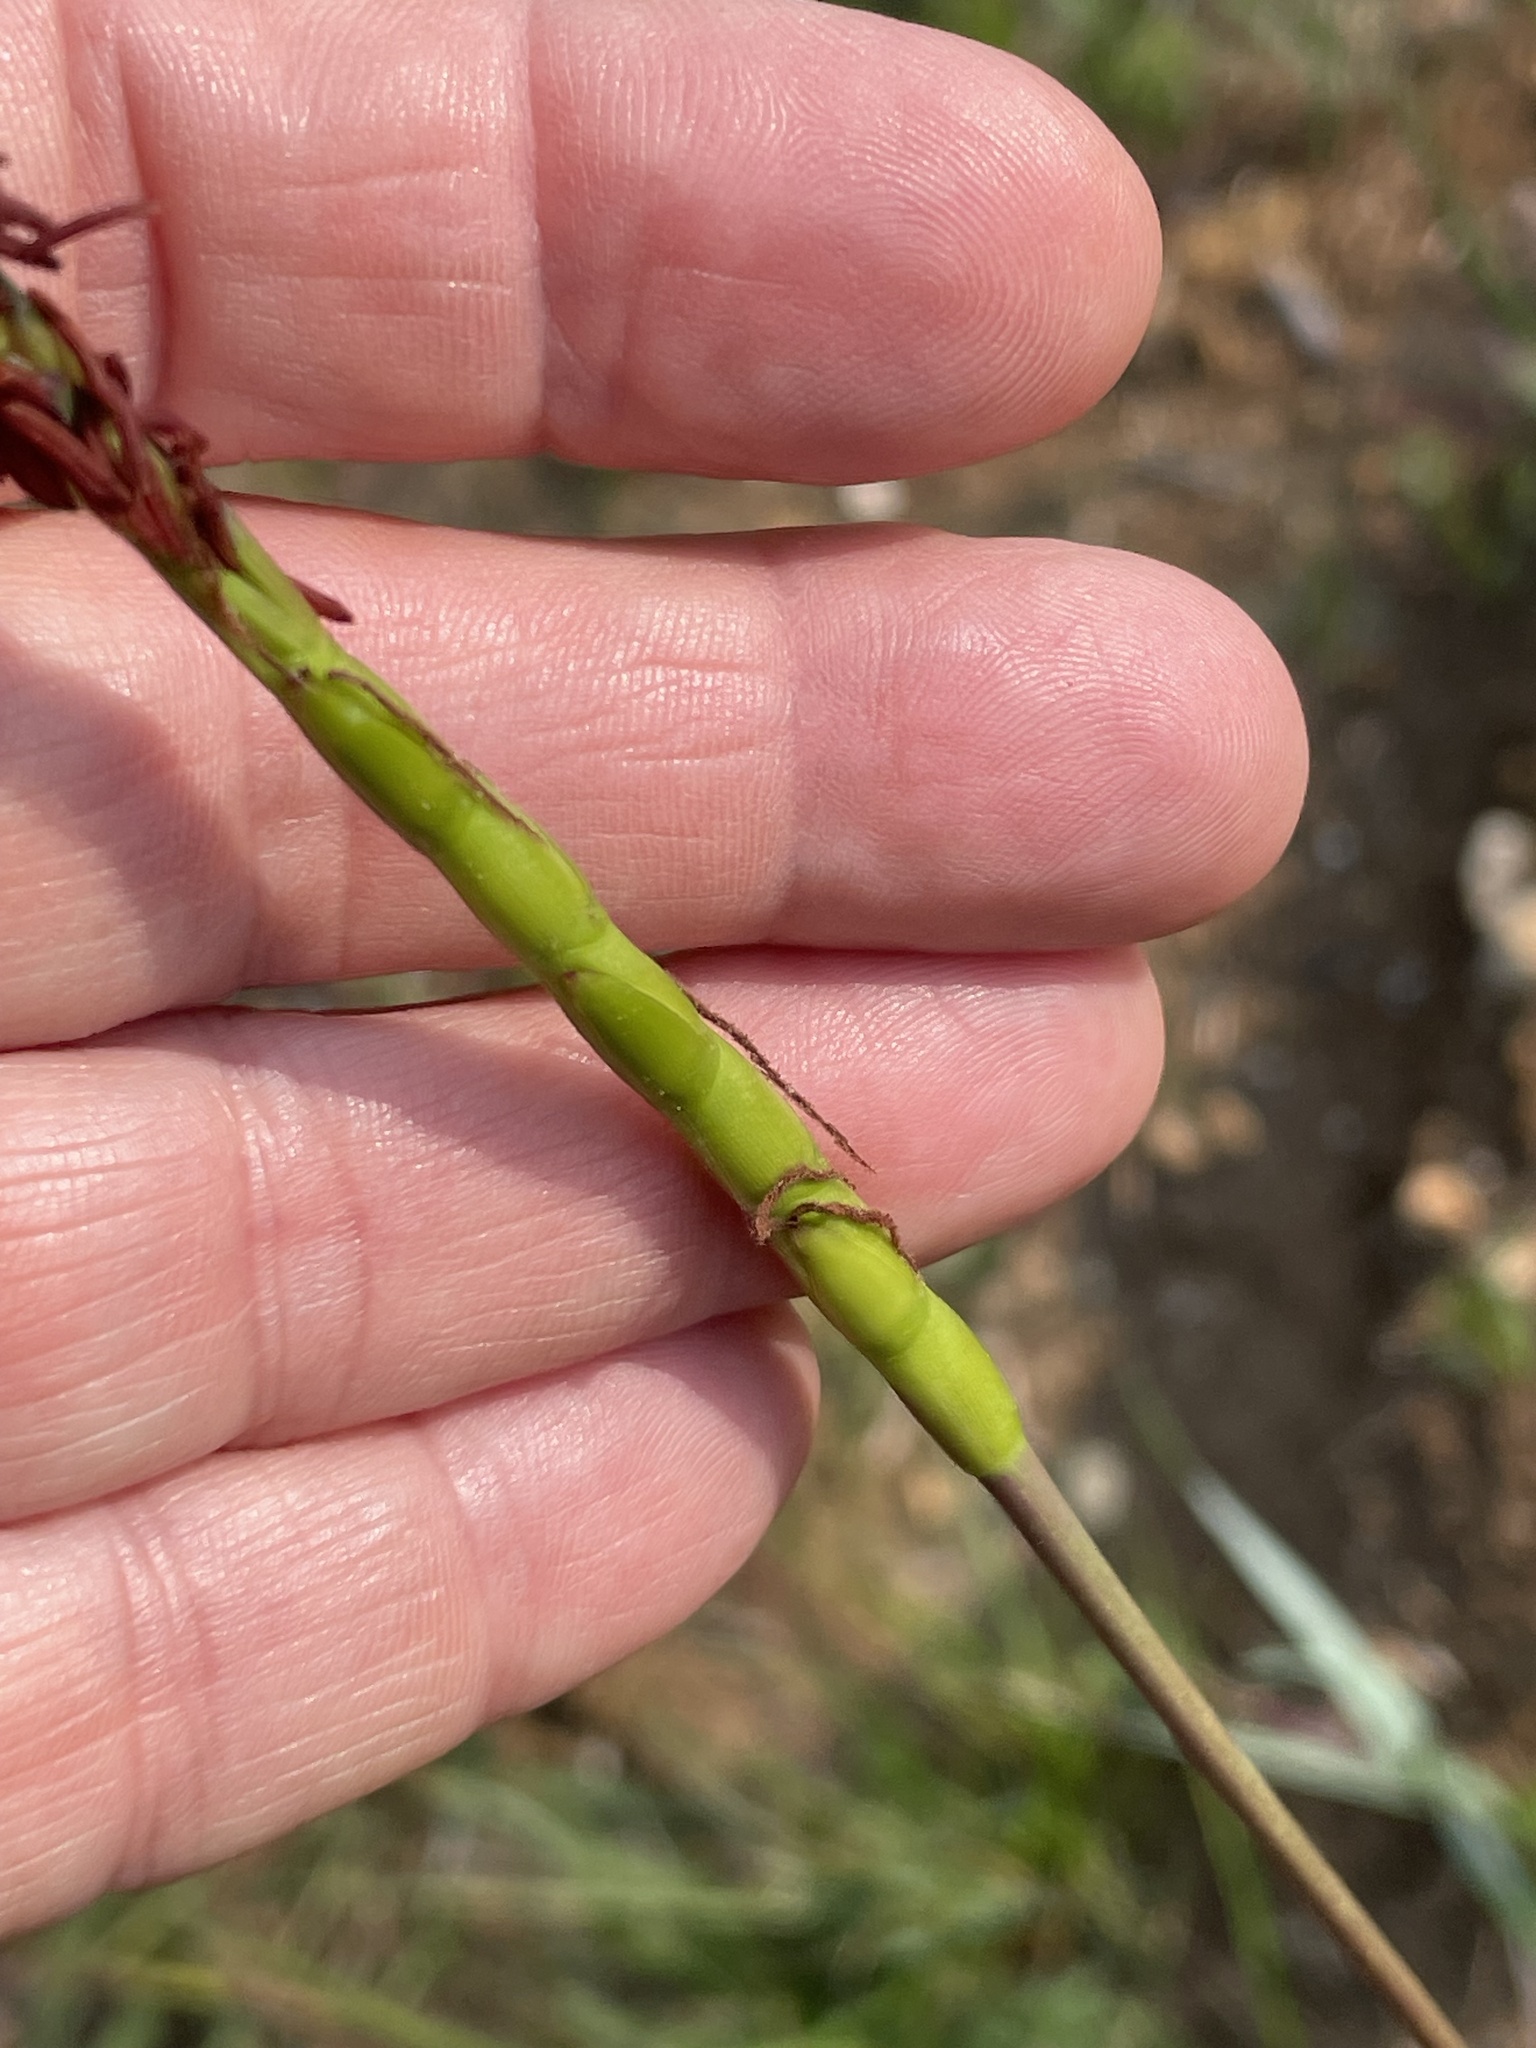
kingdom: Plantae
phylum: Tracheophyta
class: Liliopsida
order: Poales
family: Poaceae
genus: Tripsacum
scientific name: Tripsacum dactyloides
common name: Buffalo-grass
